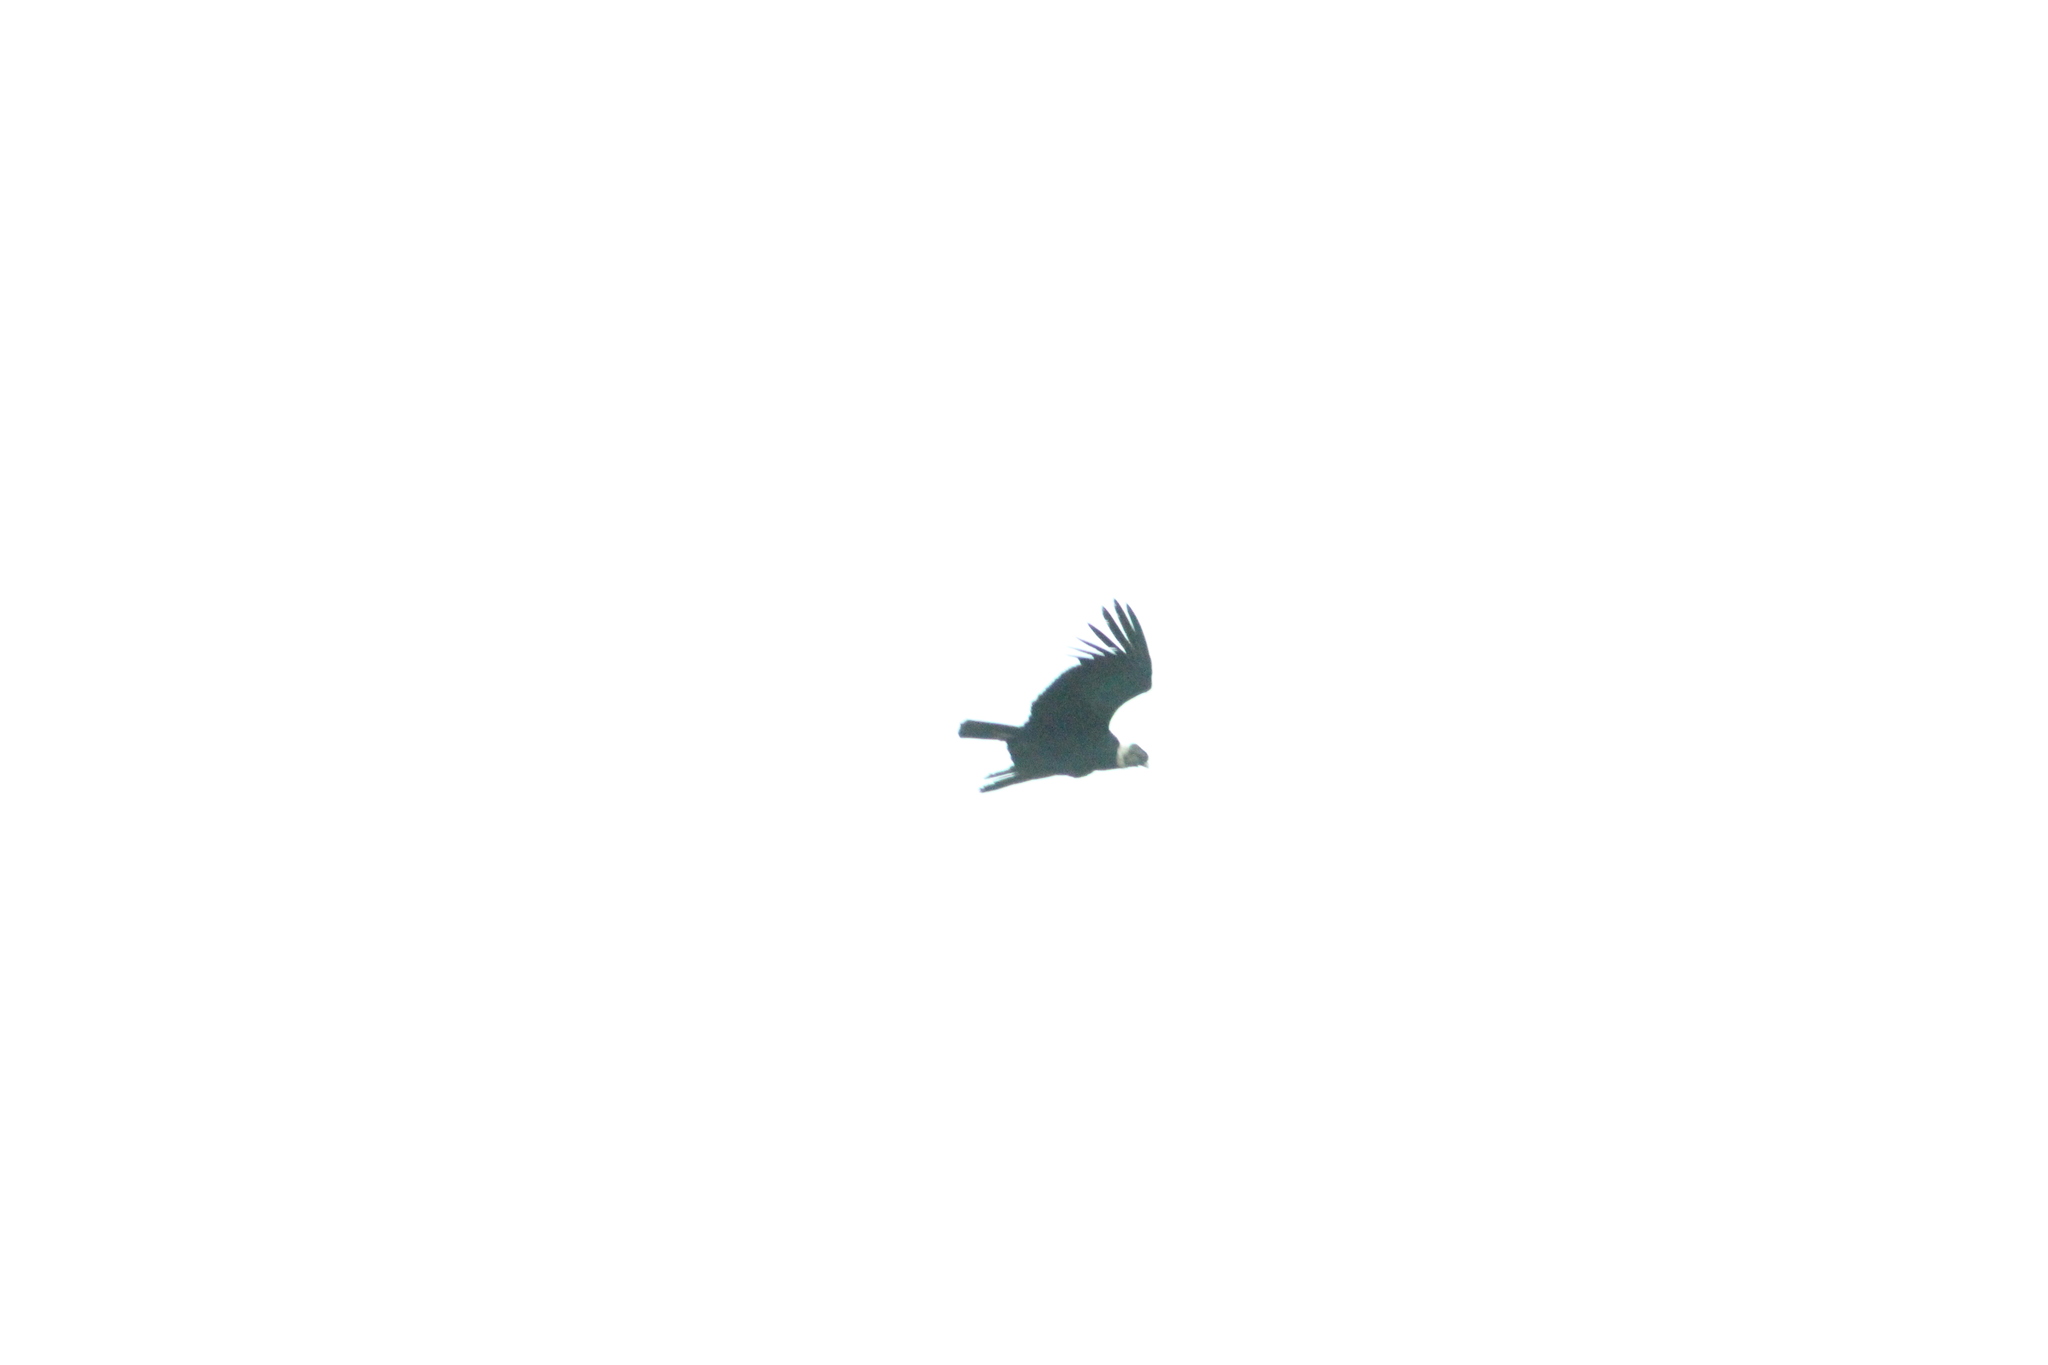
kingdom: Animalia
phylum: Chordata
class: Aves
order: Accipitriformes
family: Cathartidae
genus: Vultur
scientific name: Vultur gryphus
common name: Andean condor
